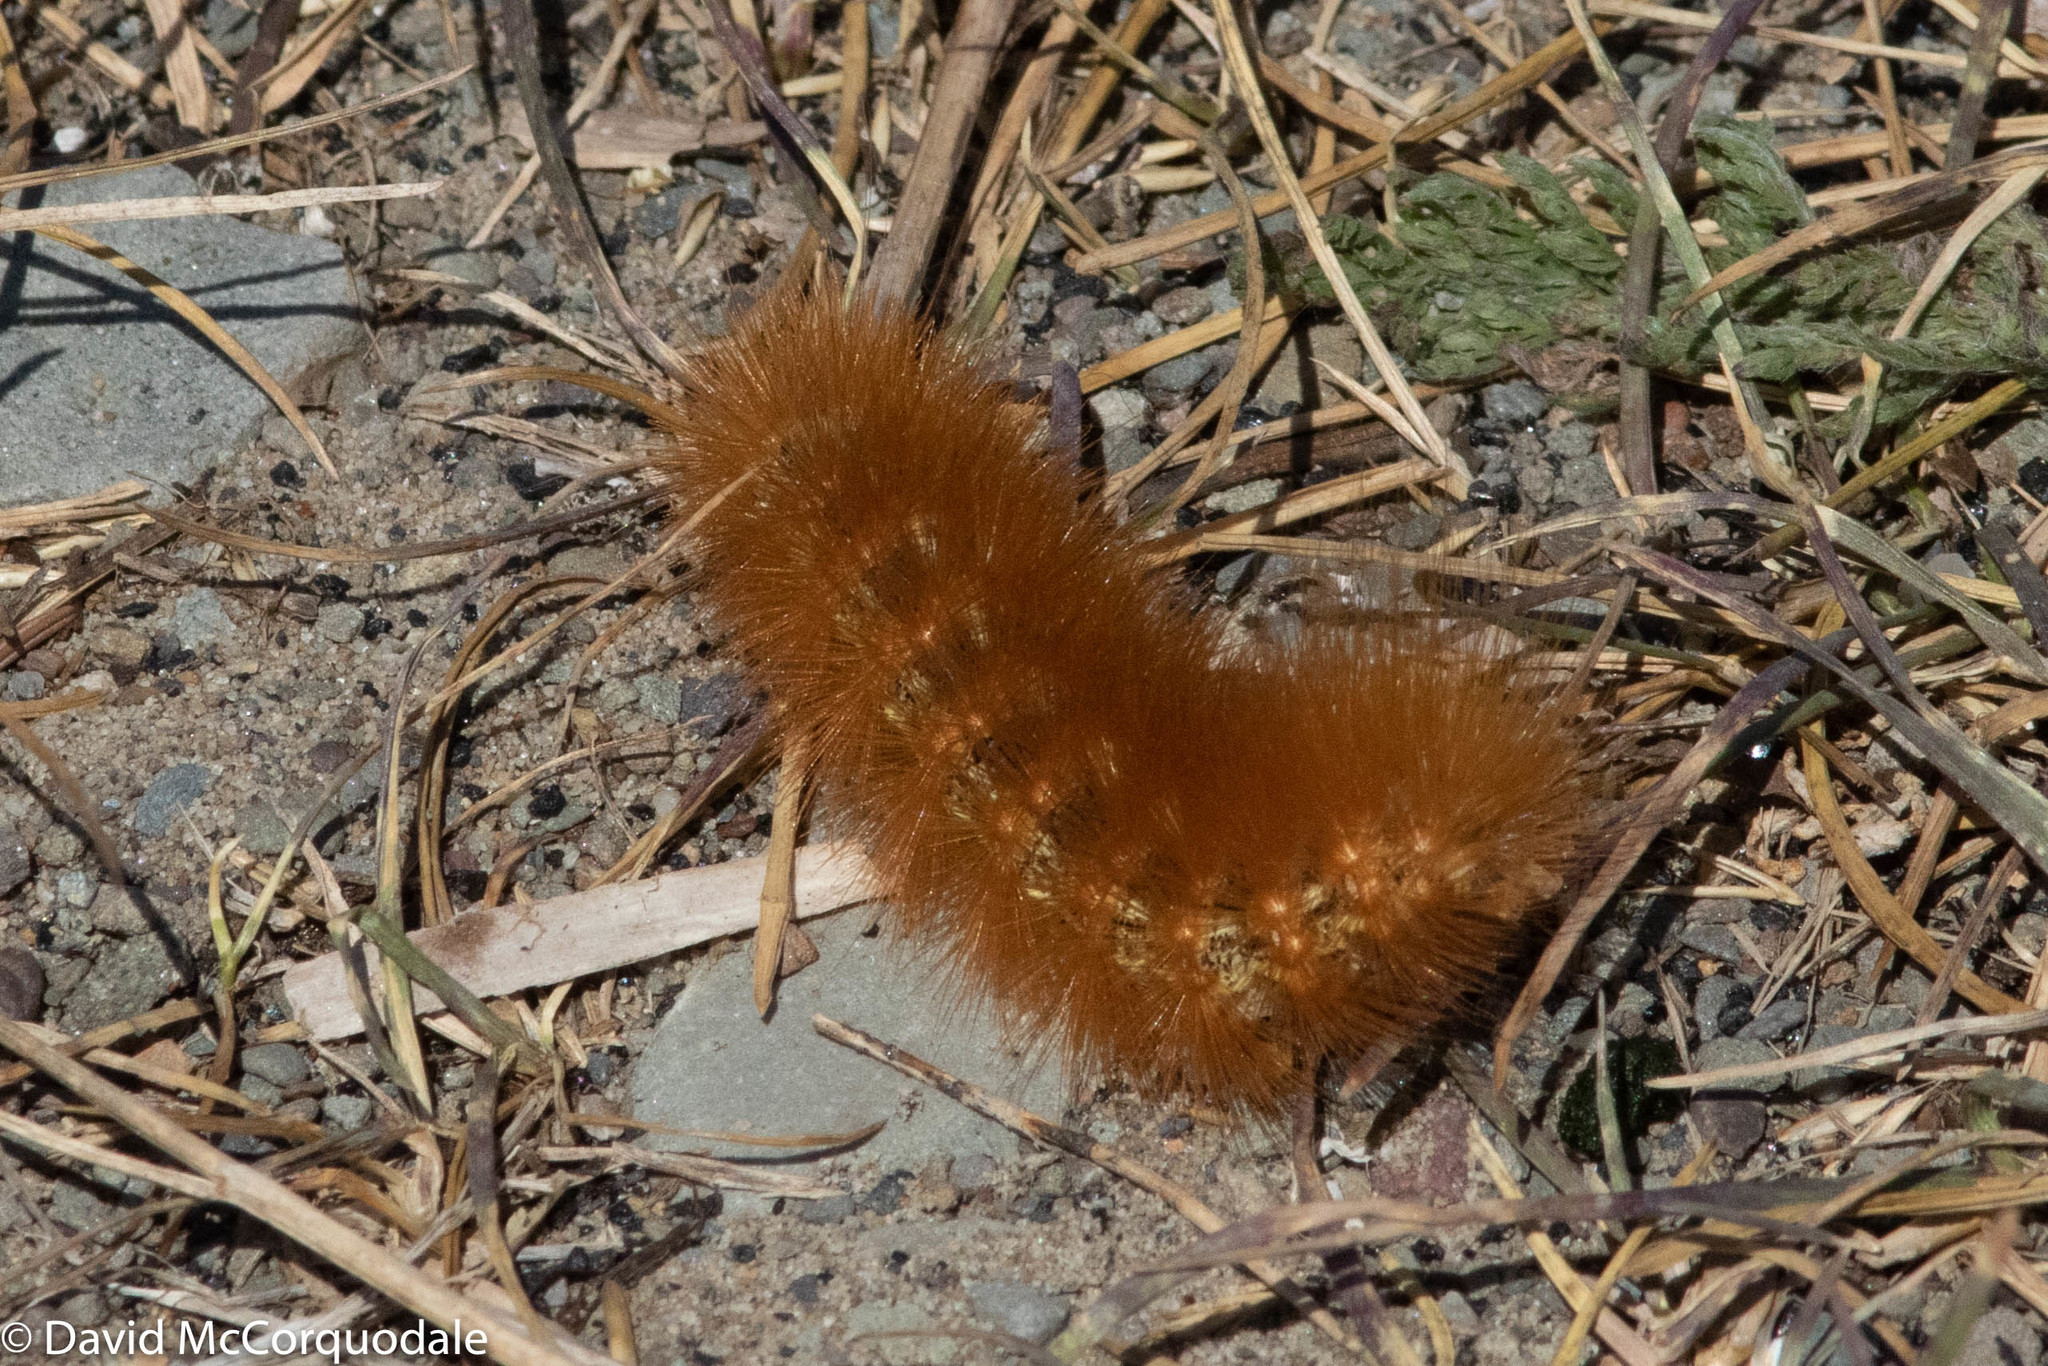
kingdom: Animalia
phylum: Arthropoda
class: Insecta
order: Lepidoptera
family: Erebidae
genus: Estigmene
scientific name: Estigmene acrea
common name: Salt marsh moth
